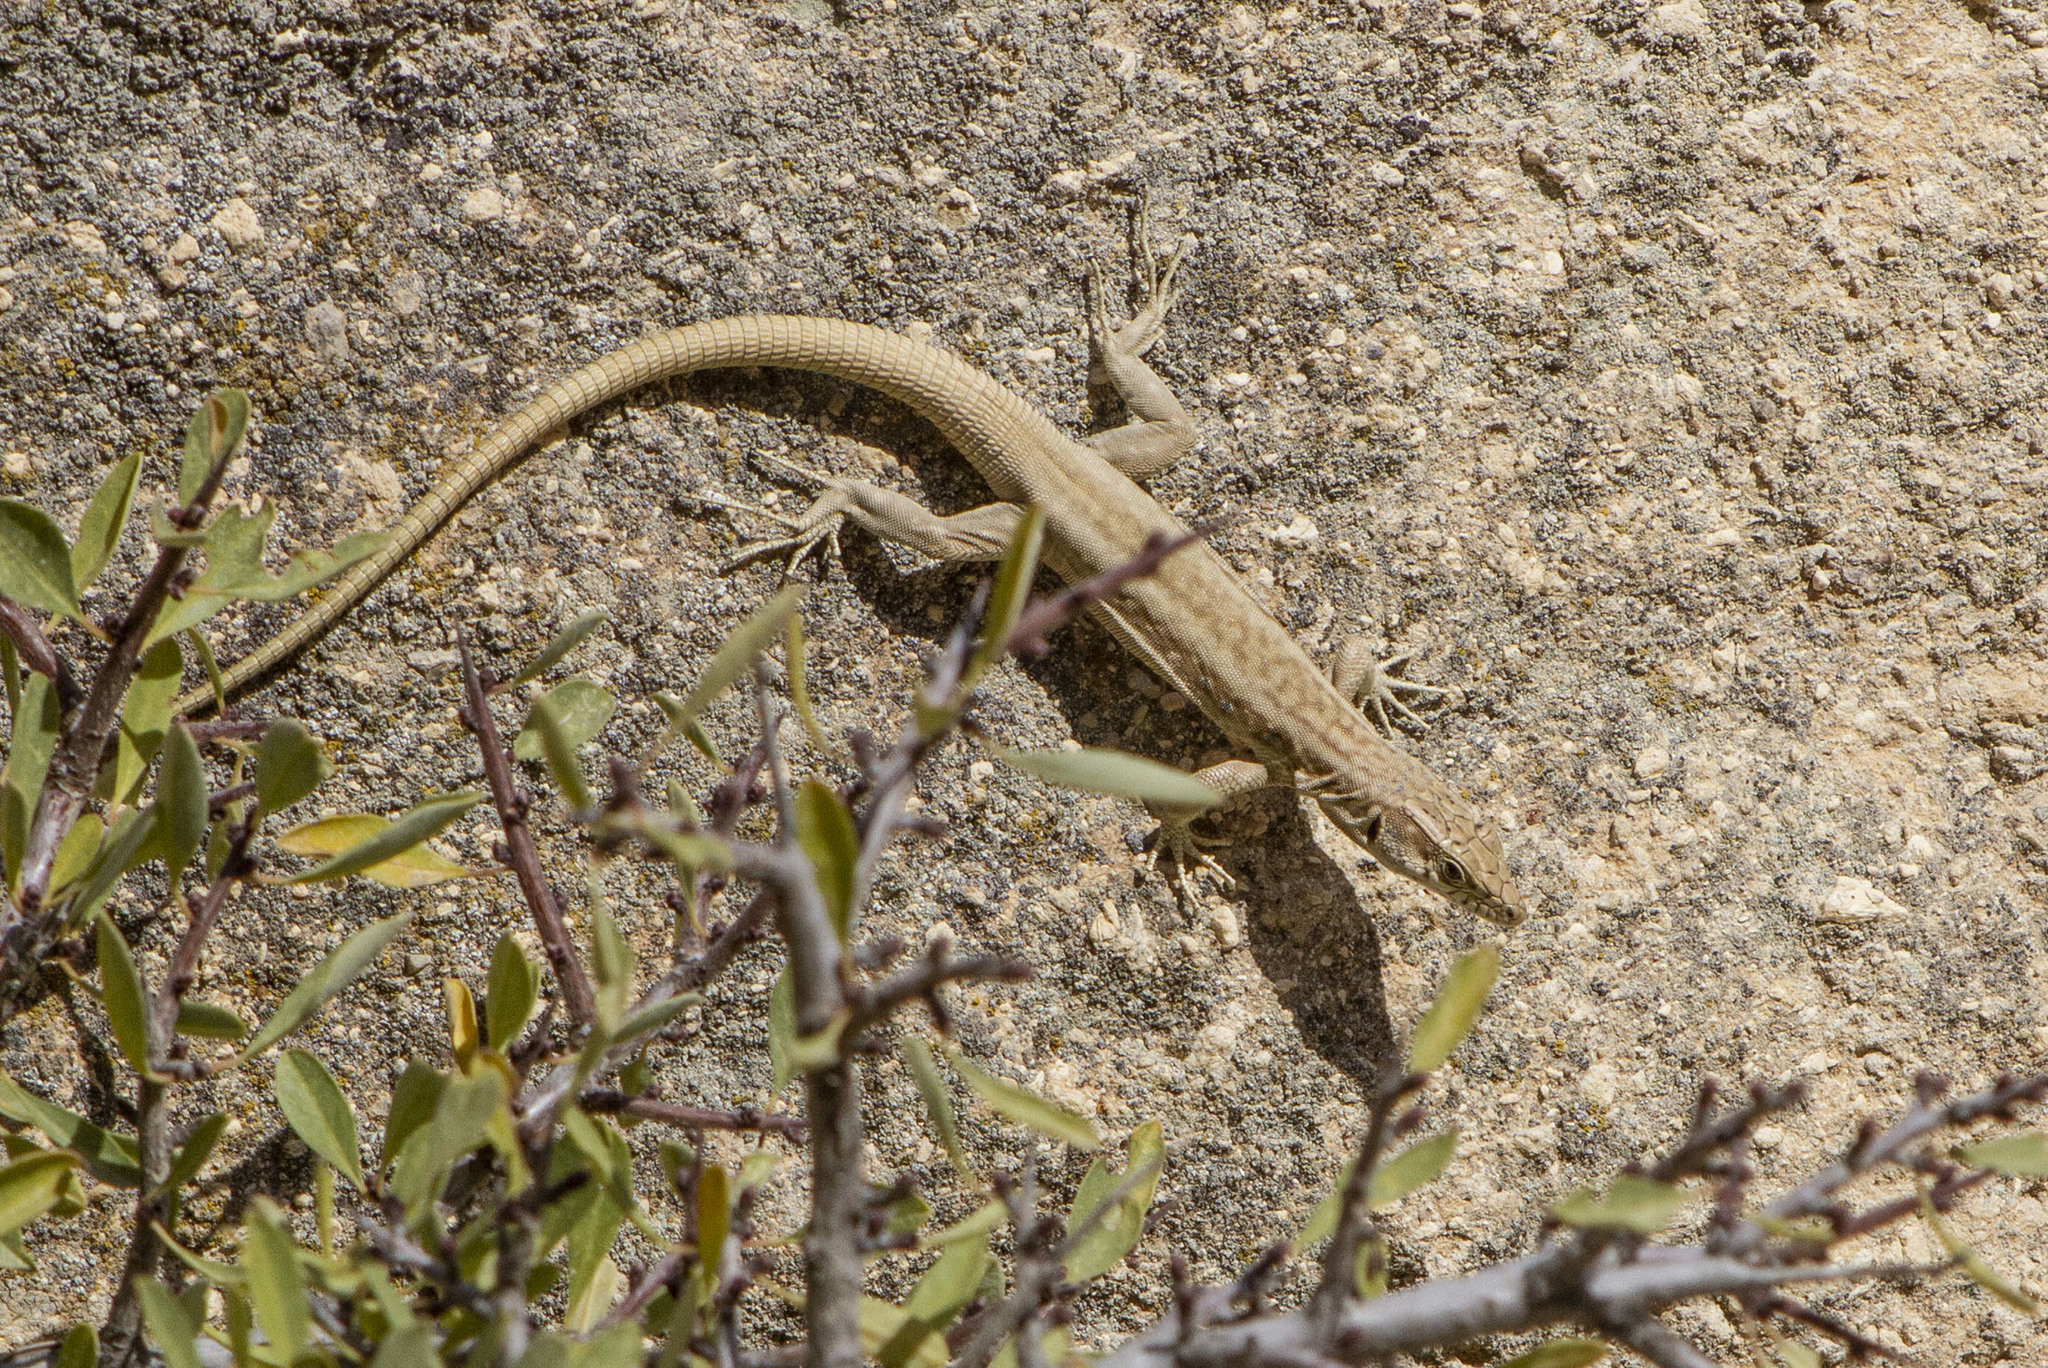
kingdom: Animalia
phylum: Chordata
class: Squamata
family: Lacertidae
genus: Apathya
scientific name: Apathya cappadocica
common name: Anatolian lizard
